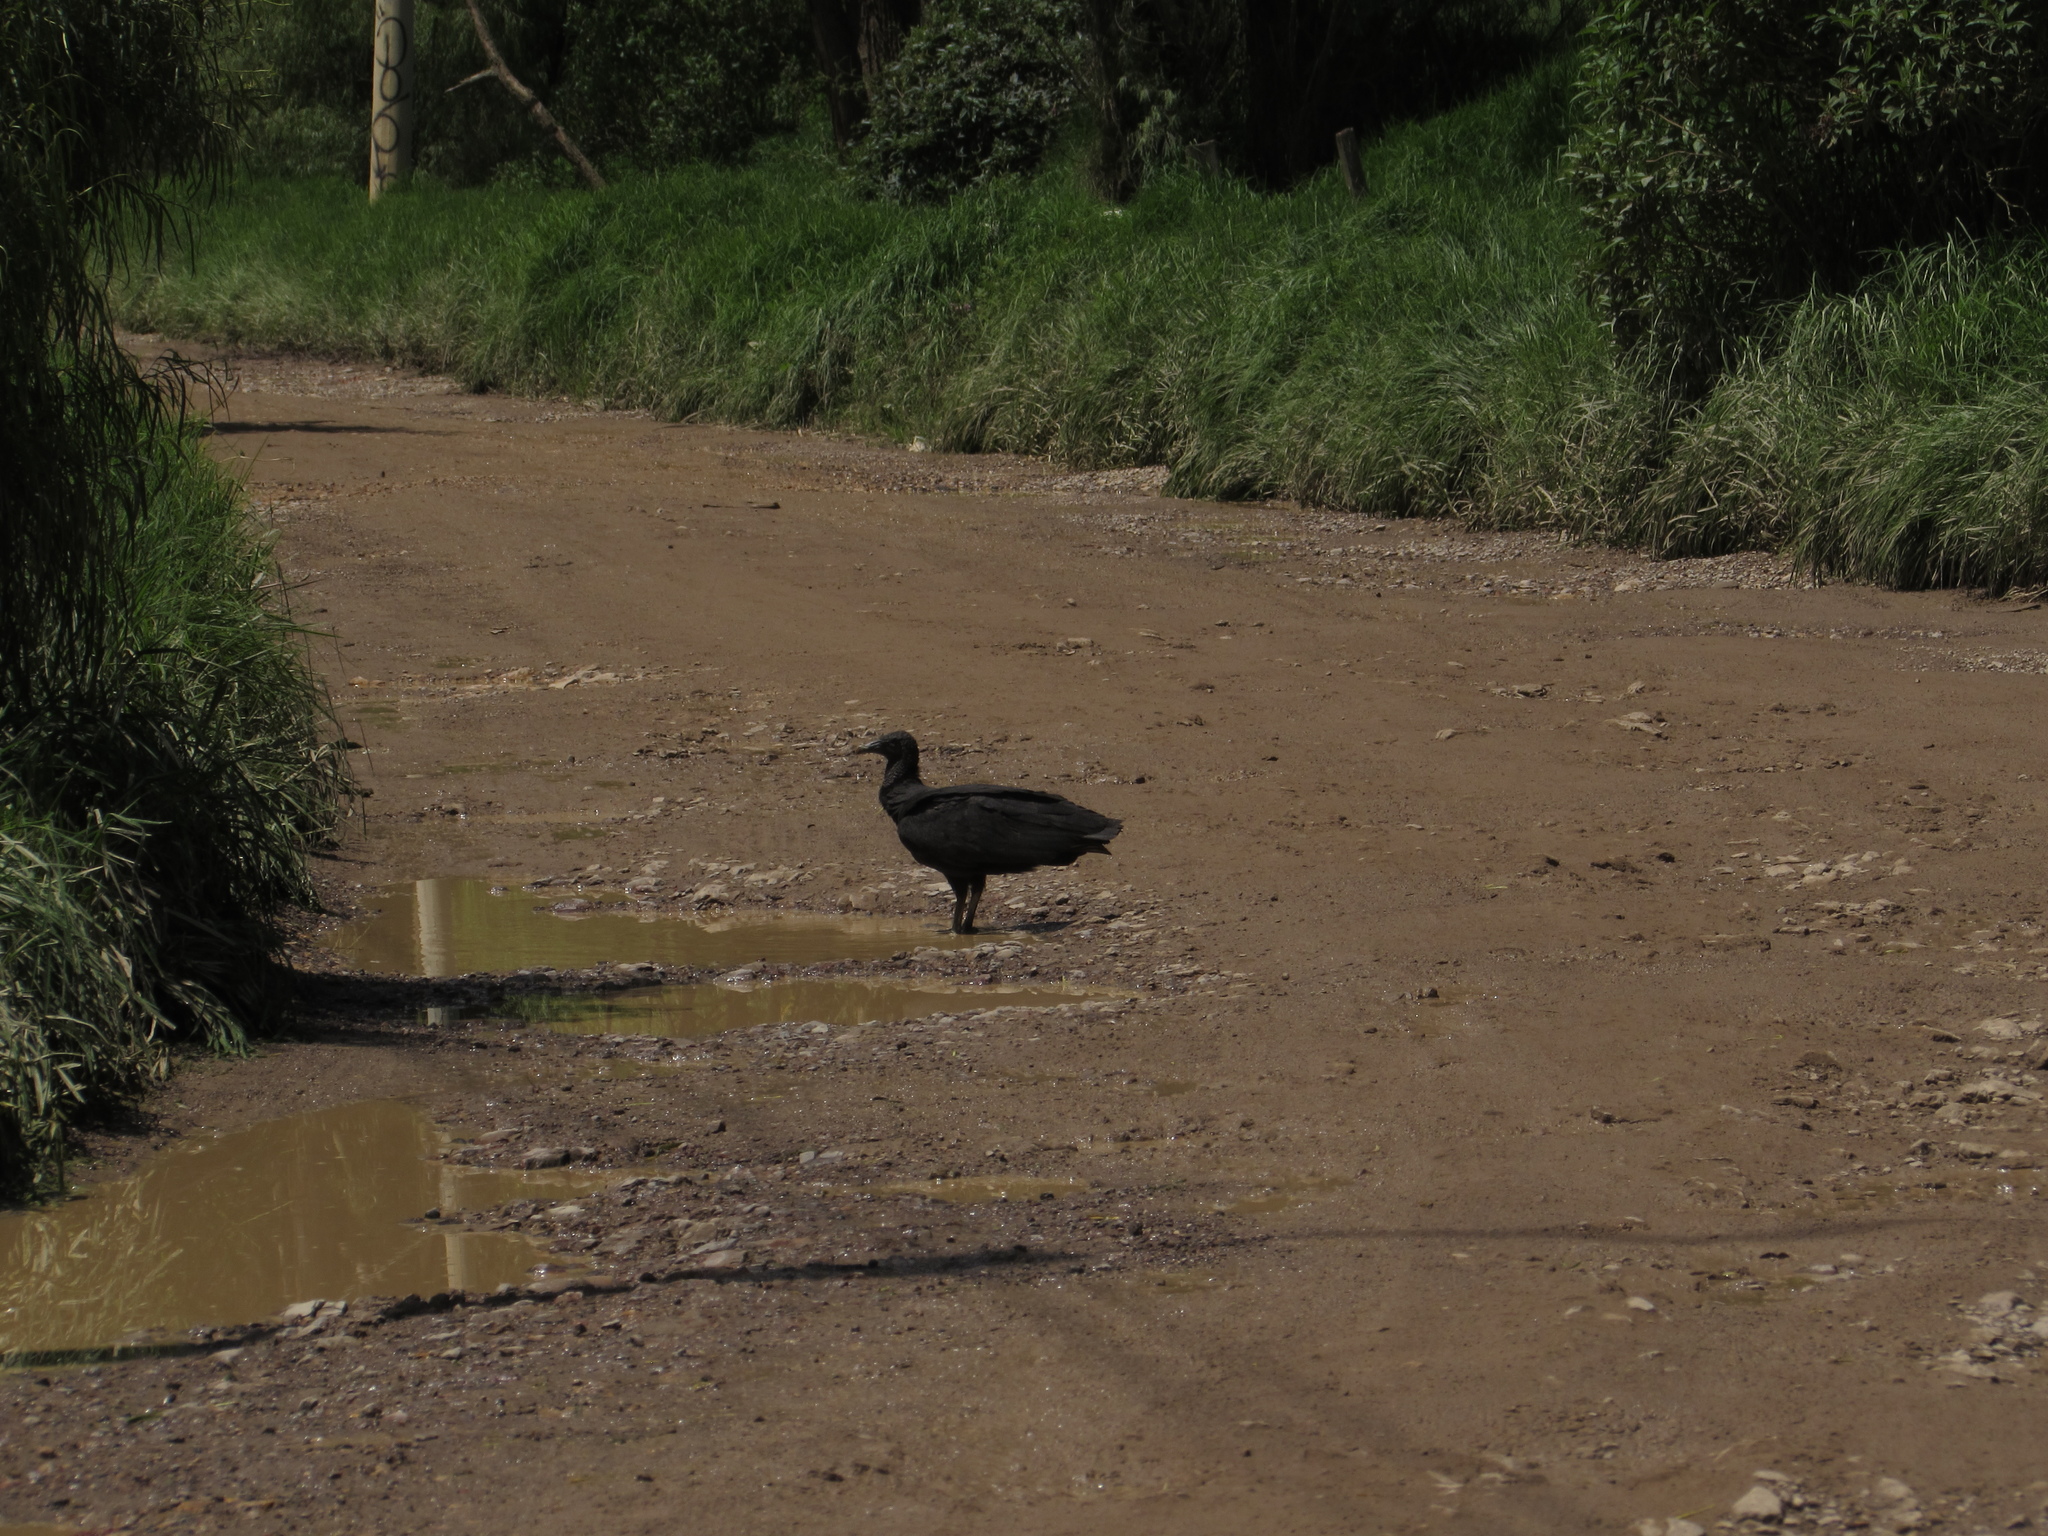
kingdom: Animalia
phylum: Chordata
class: Aves
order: Accipitriformes
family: Cathartidae
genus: Coragyps
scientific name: Coragyps atratus
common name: Black vulture
